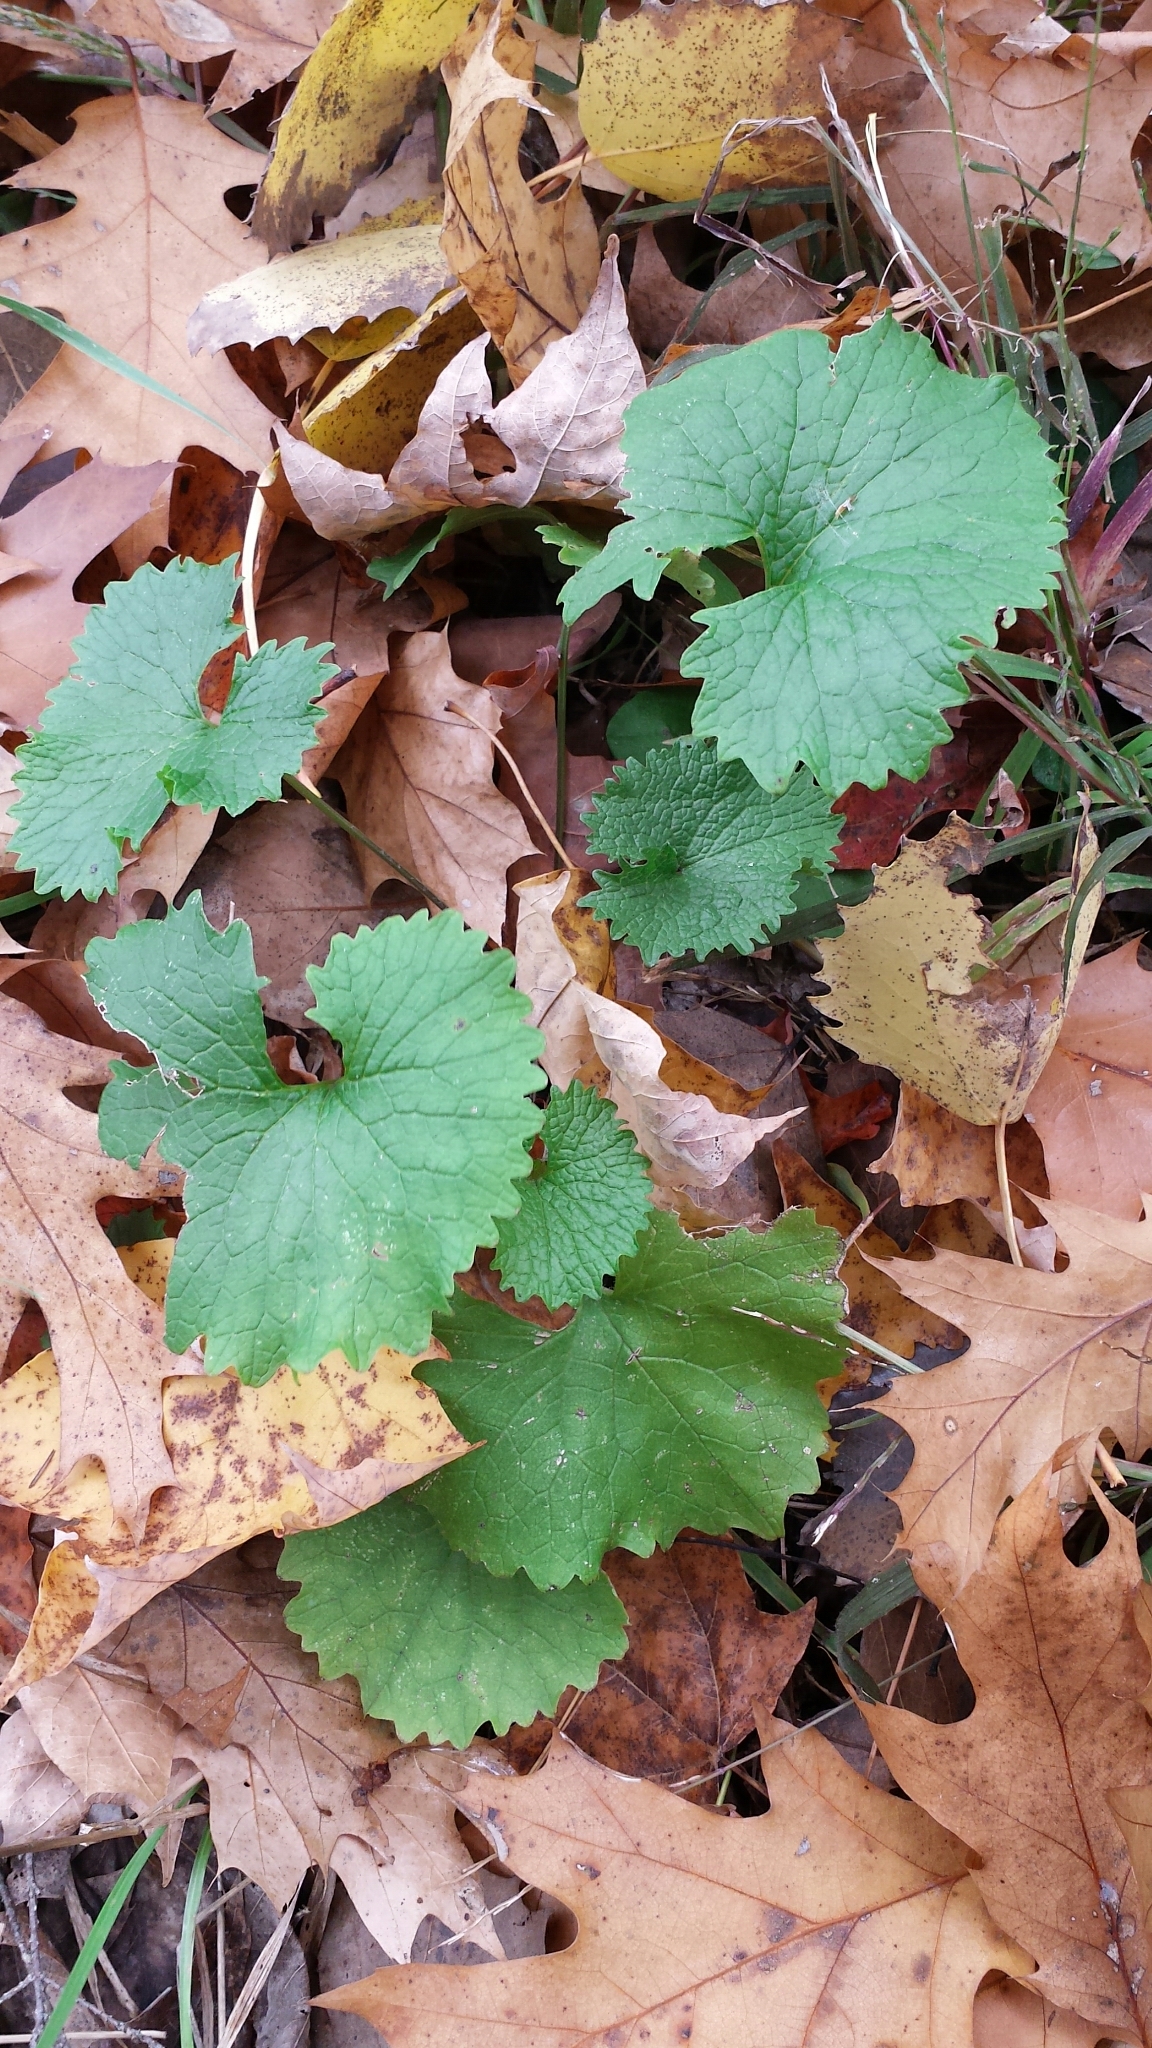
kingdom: Plantae
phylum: Tracheophyta
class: Magnoliopsida
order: Brassicales
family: Brassicaceae
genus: Alliaria
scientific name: Alliaria petiolata
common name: Garlic mustard
